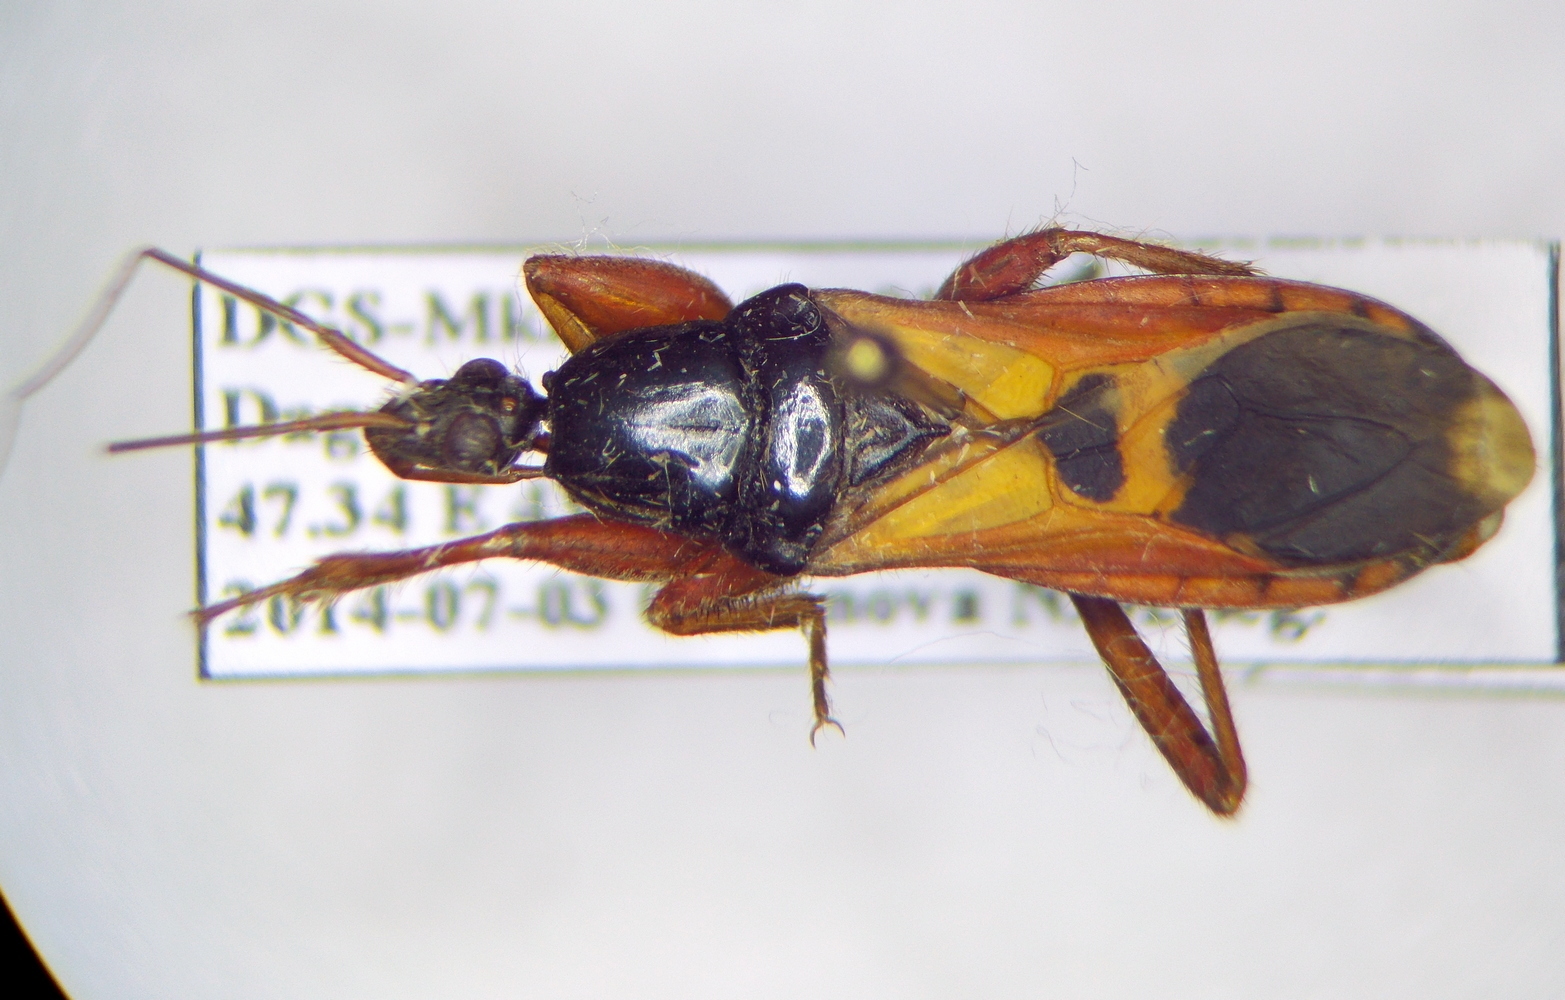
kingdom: Animalia
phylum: Arthropoda
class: Insecta
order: Hemiptera
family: Reduviidae
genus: Ectomocoris
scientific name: Ectomocoris ululans
